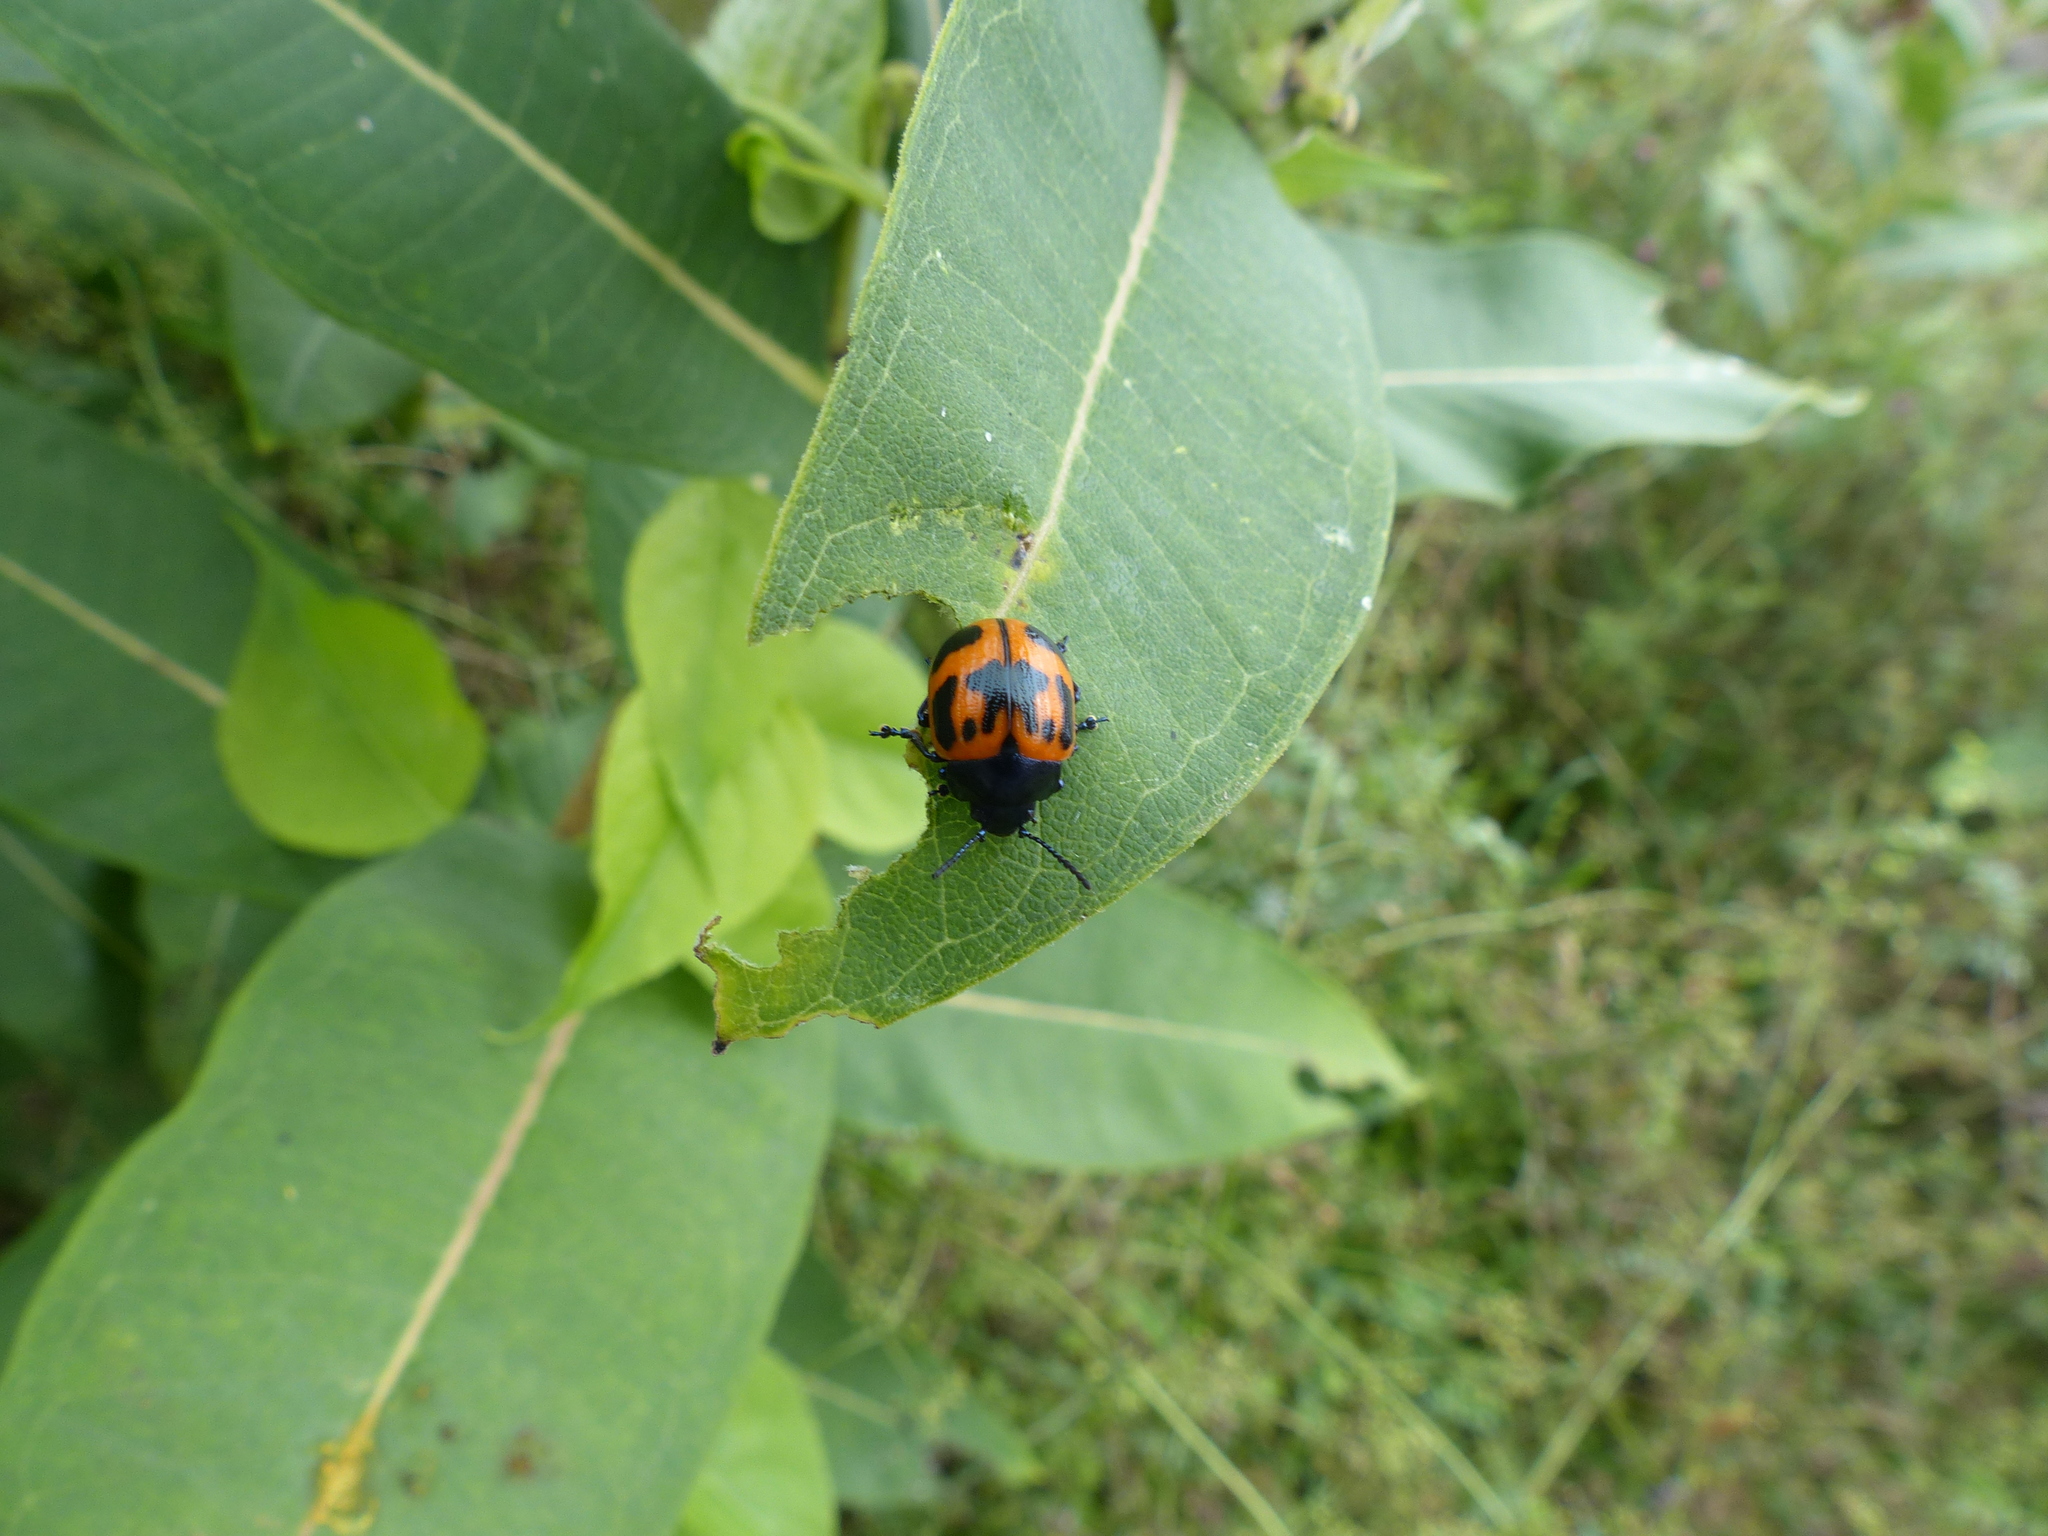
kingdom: Animalia
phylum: Arthropoda
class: Insecta
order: Coleoptera
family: Chrysomelidae
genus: Labidomera
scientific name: Labidomera clivicollis
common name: Swamp milkweed leaf beetle
